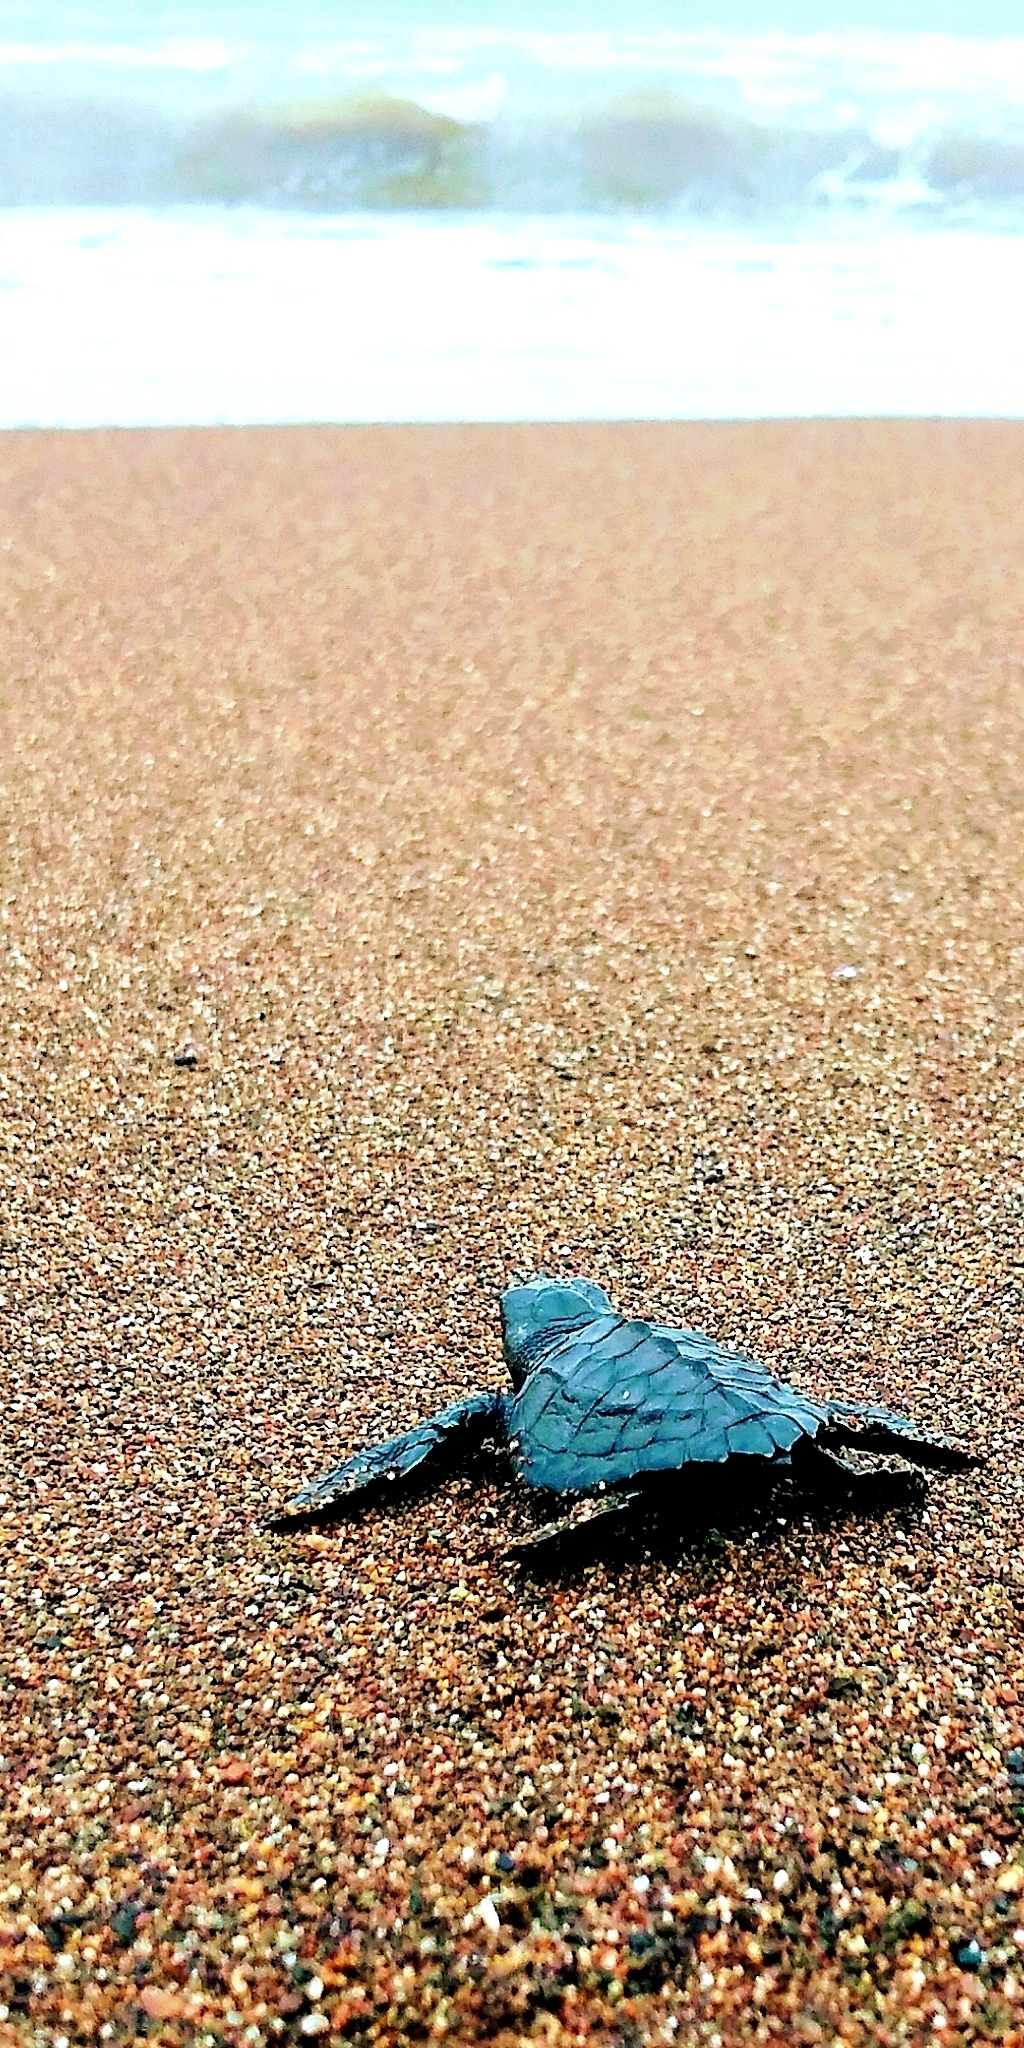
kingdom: Animalia
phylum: Chordata
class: Testudines
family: Cheloniidae
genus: Lepidochelys
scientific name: Lepidochelys olivacea
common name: Olive ridley
